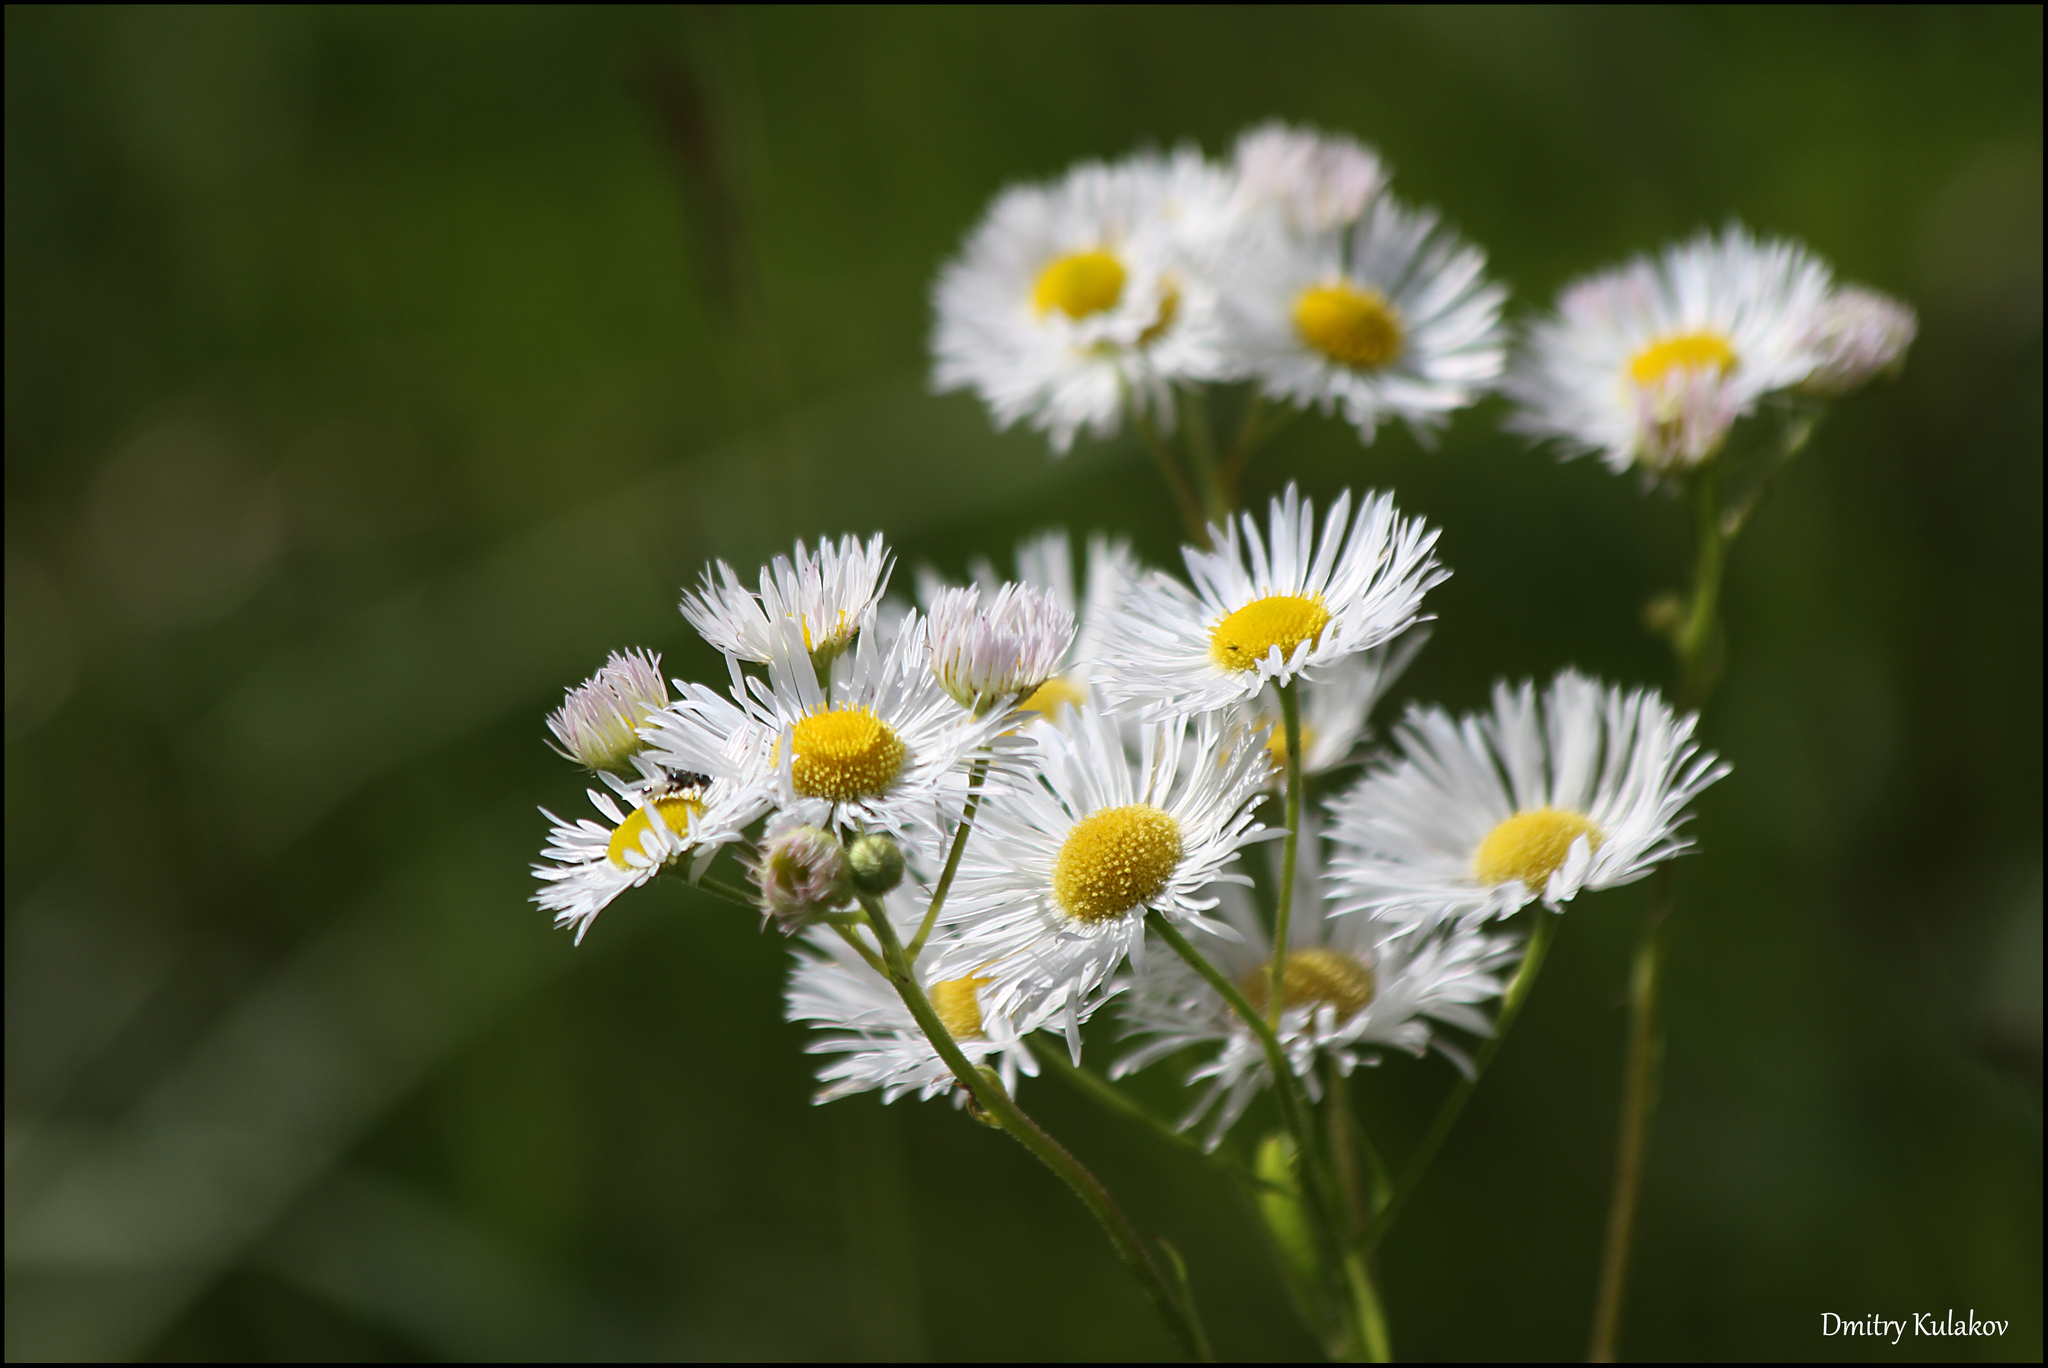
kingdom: Plantae
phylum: Tracheophyta
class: Magnoliopsida
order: Asterales
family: Asteraceae
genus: Erigeron
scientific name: Erigeron annuus
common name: Tall fleabane
